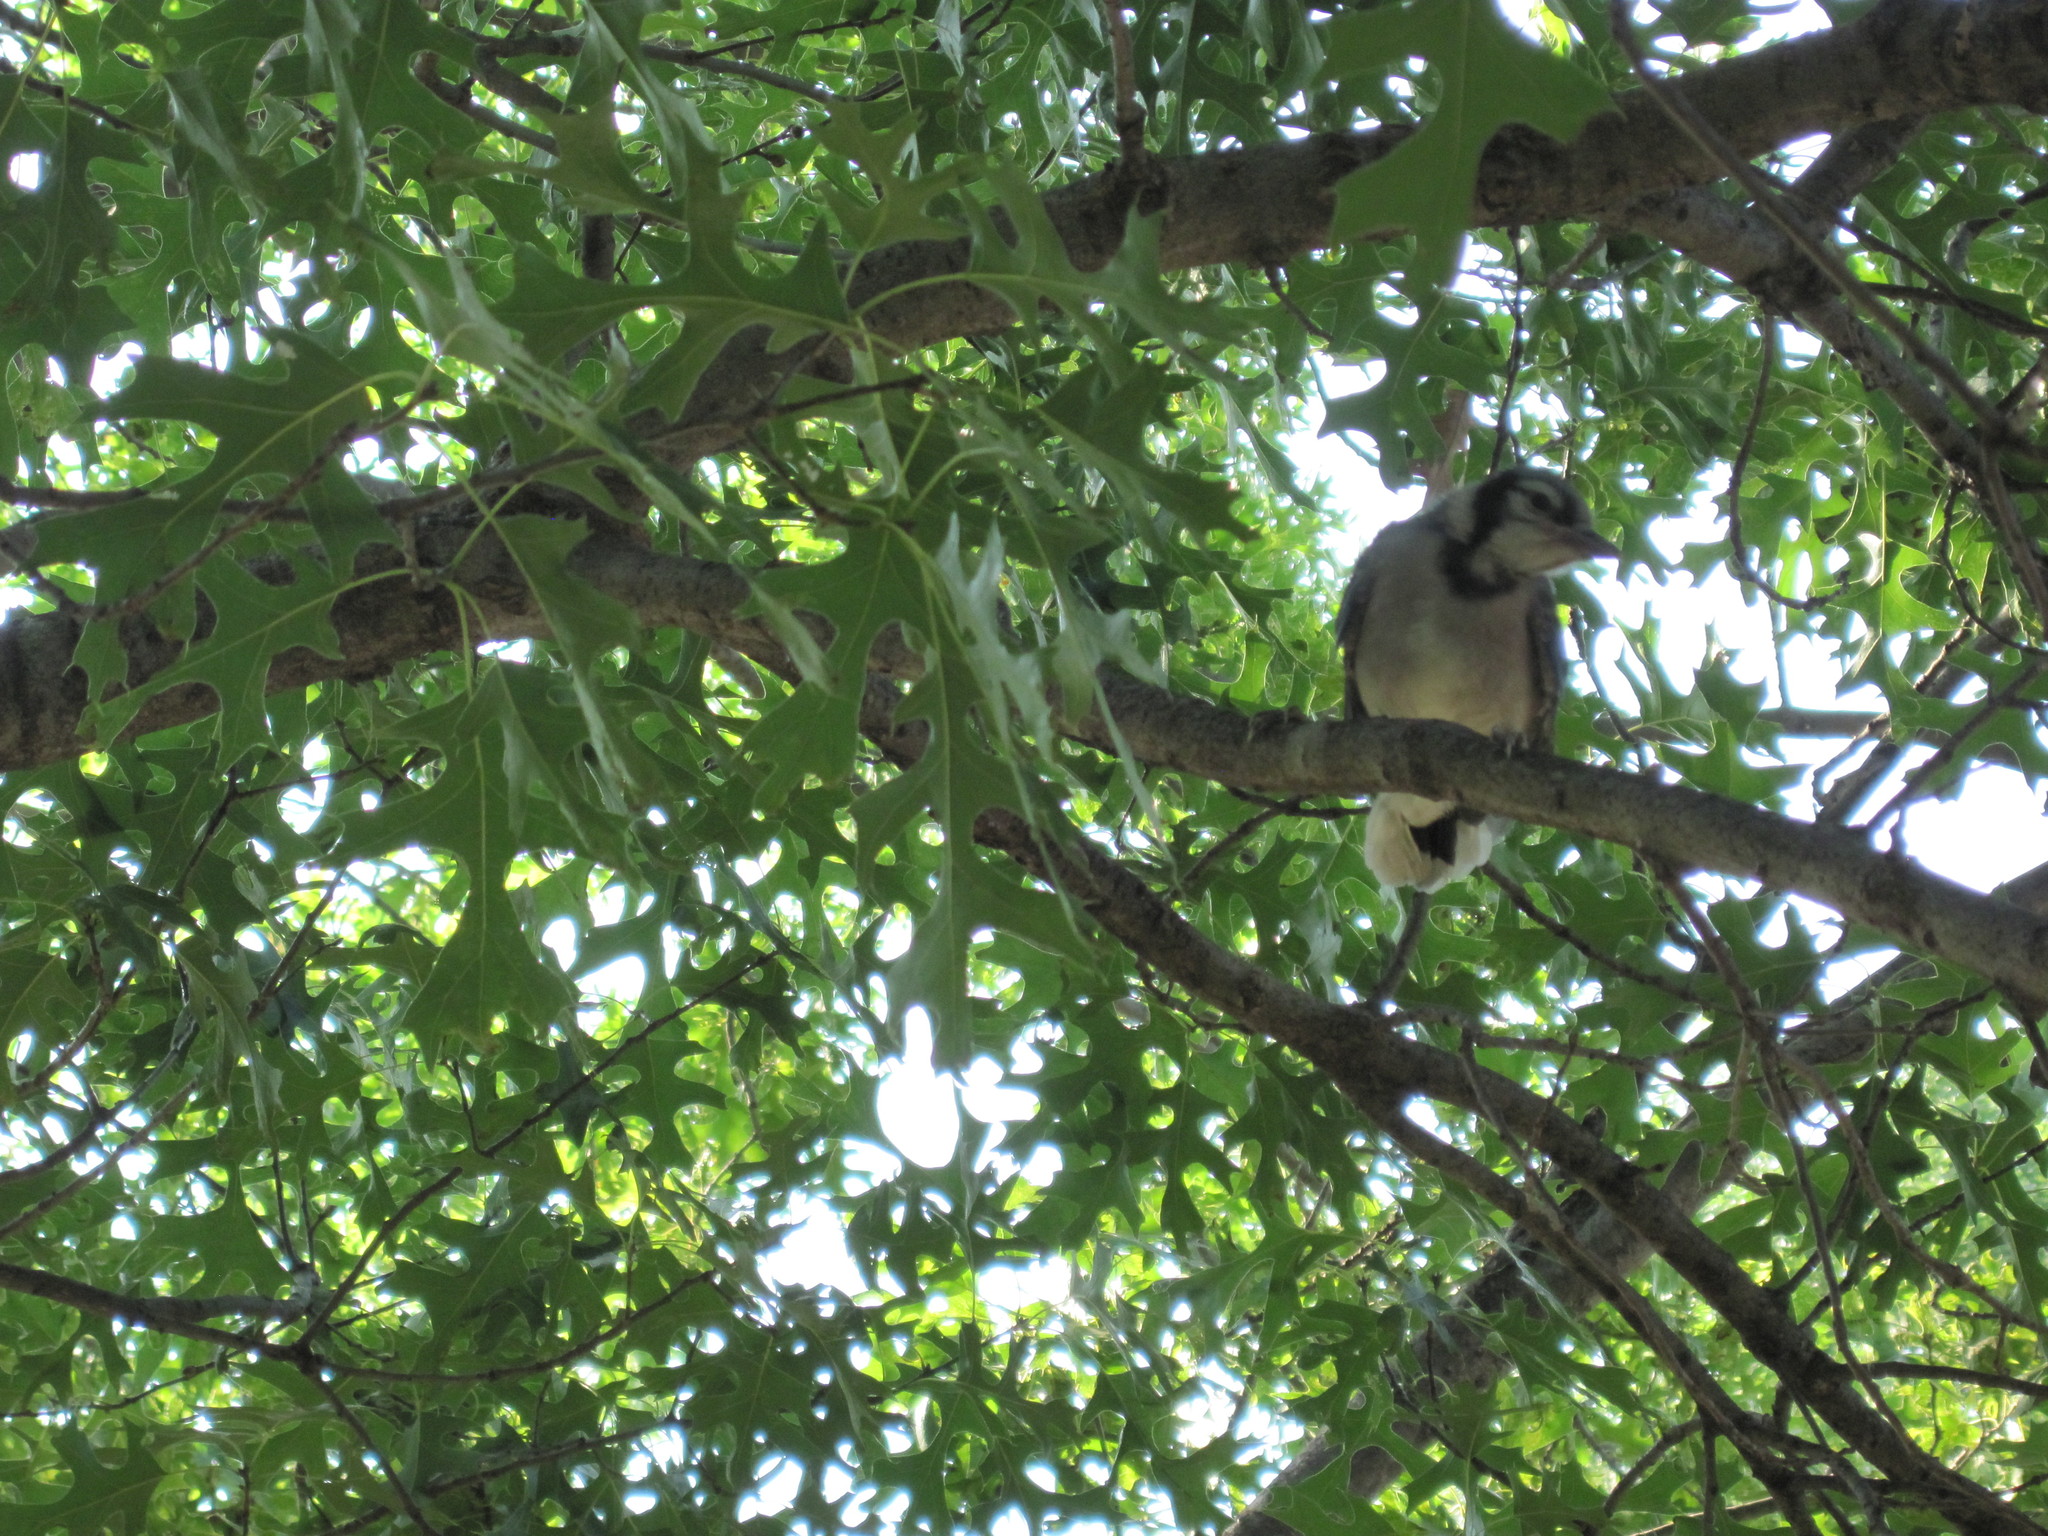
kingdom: Animalia
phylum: Chordata
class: Aves
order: Passeriformes
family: Corvidae
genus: Cyanocitta
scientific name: Cyanocitta cristata
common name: Blue jay
